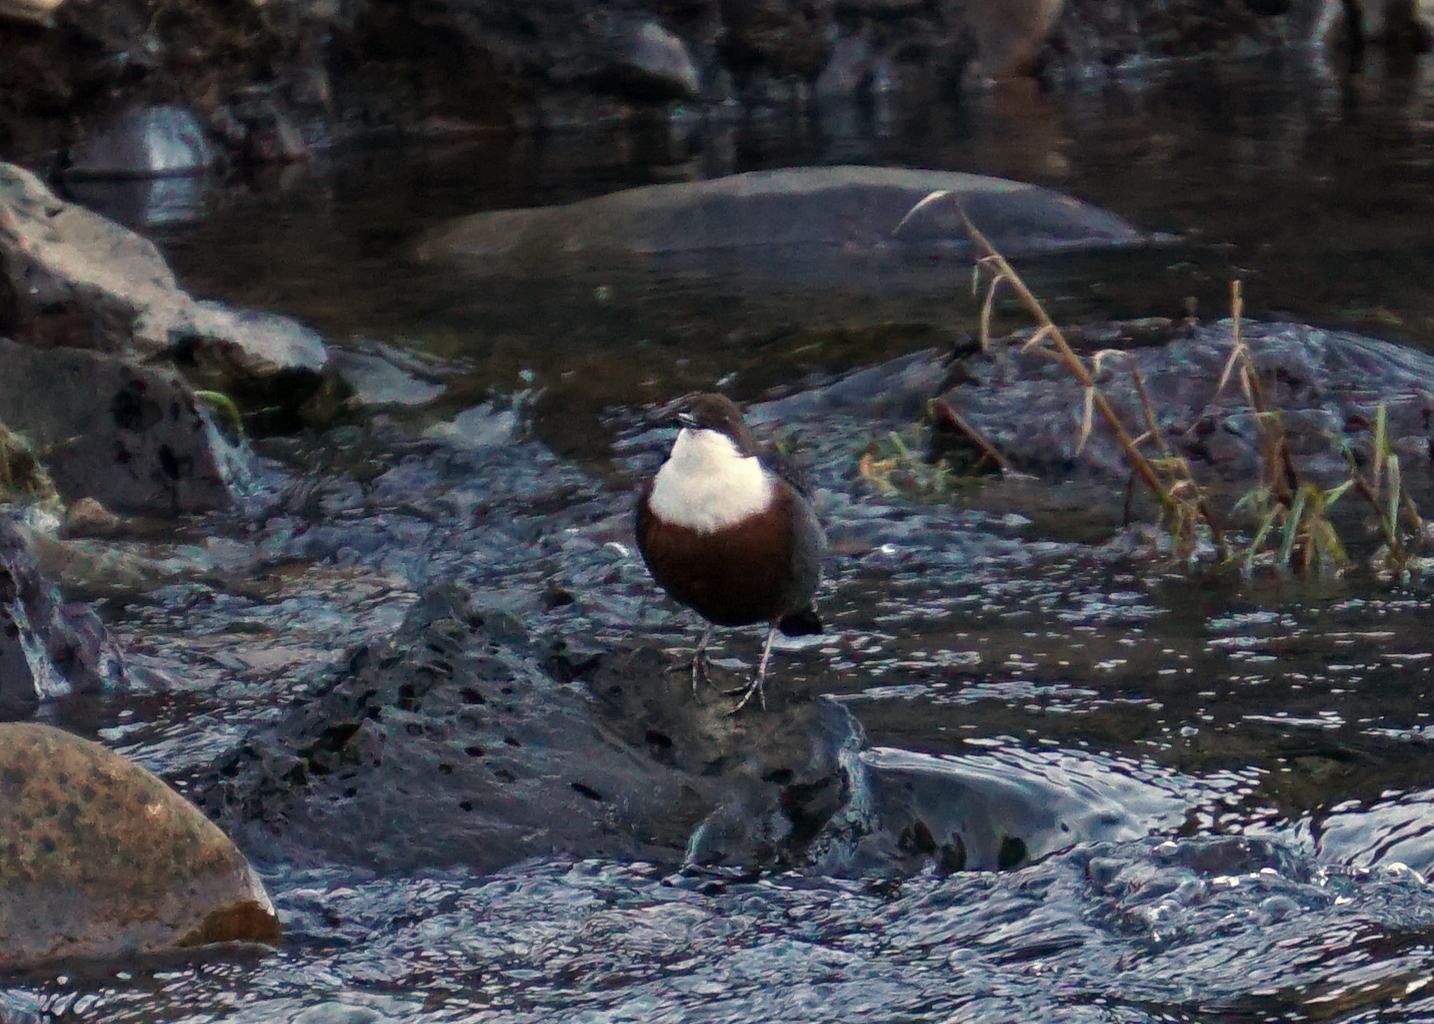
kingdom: Animalia
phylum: Chordata
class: Aves
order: Passeriformes
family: Cinclidae
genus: Cinclus
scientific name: Cinclus cinclus
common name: White-throated dipper
